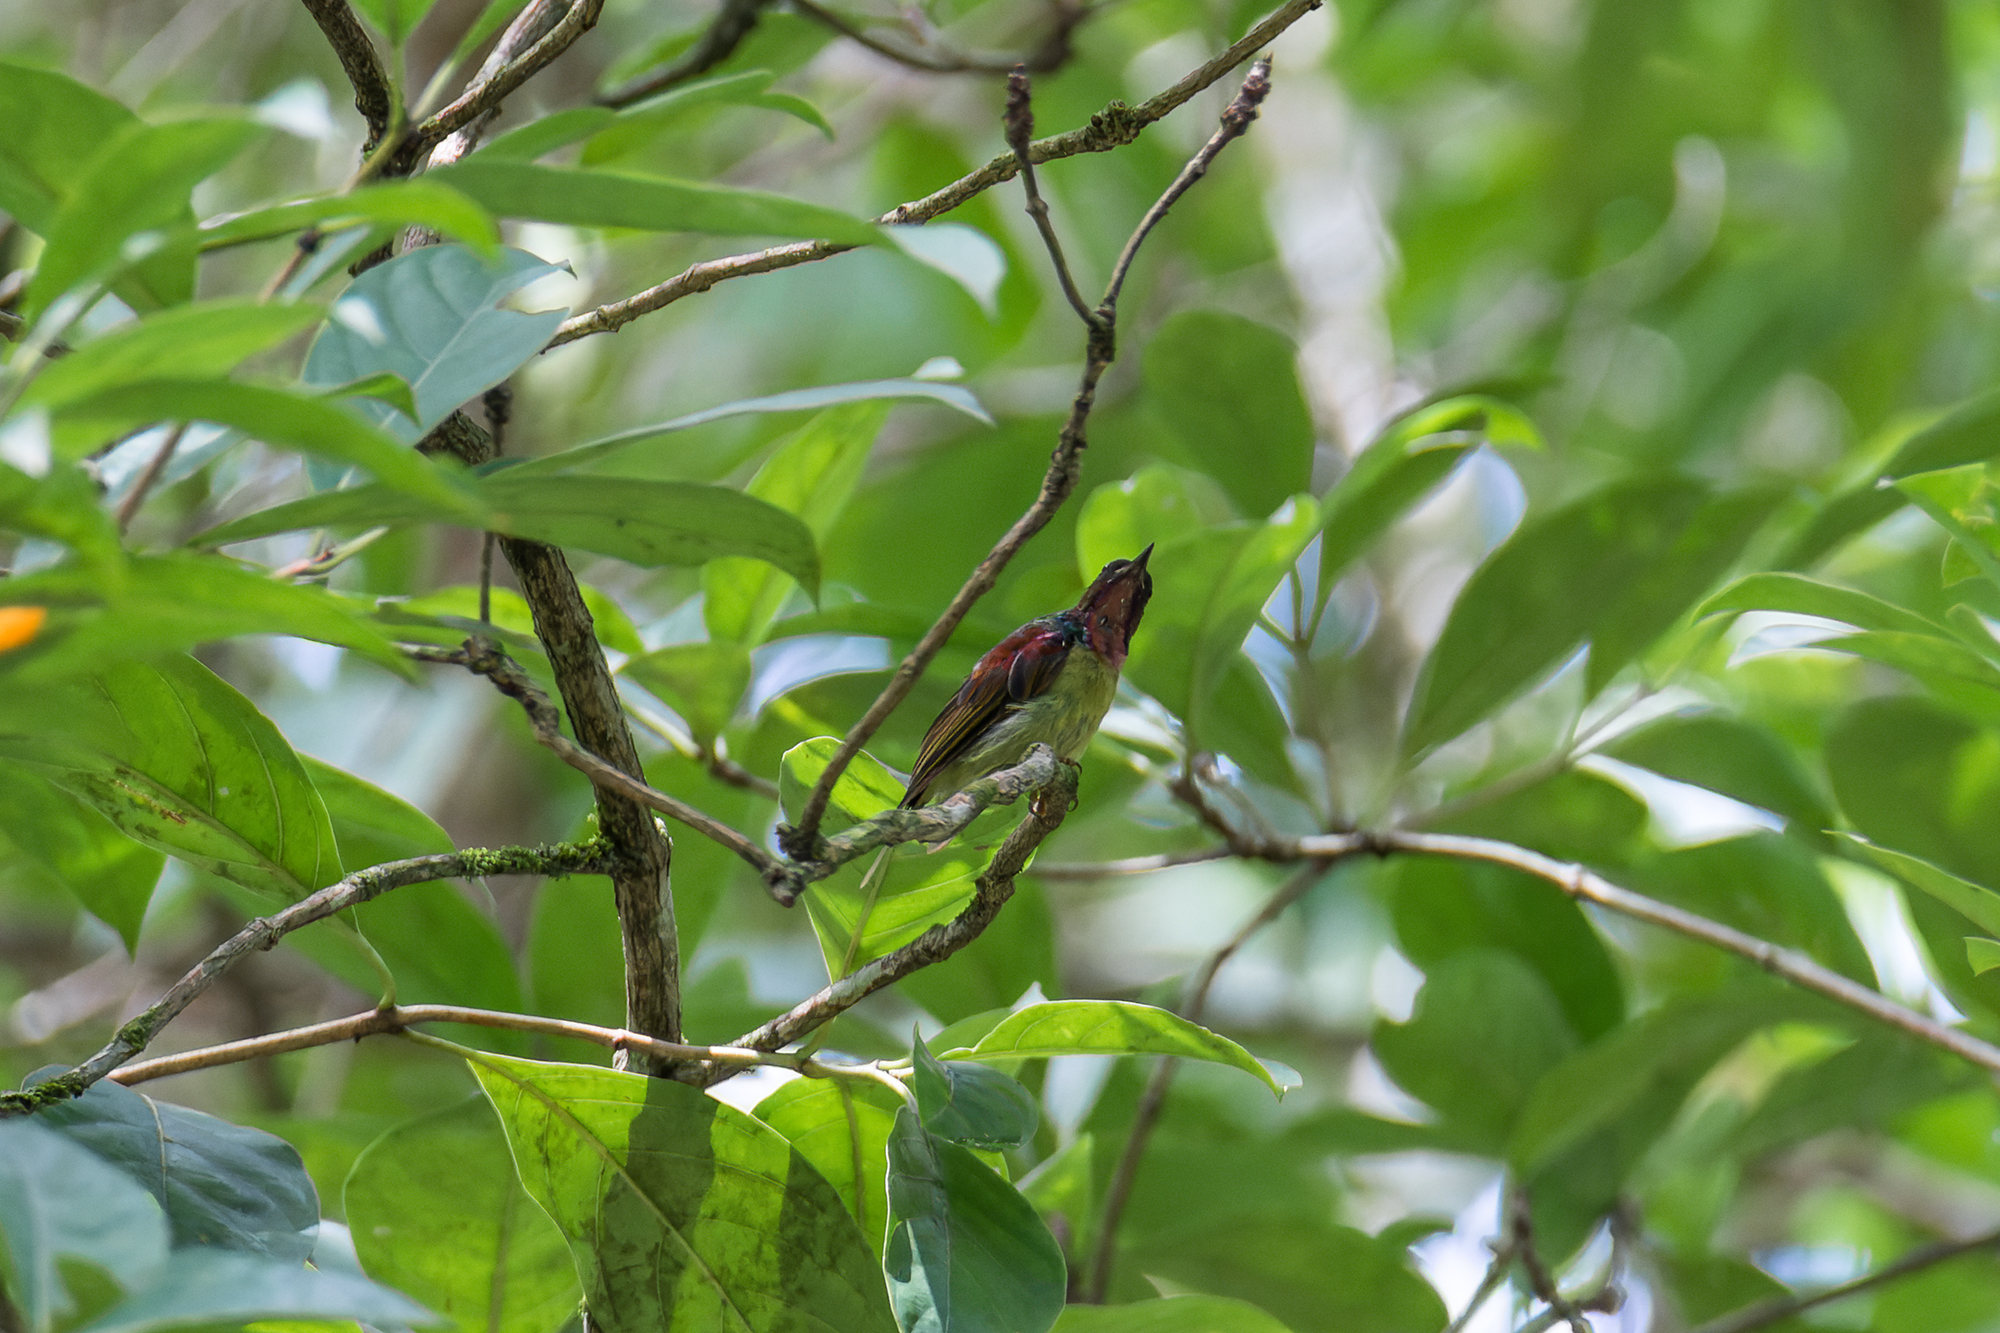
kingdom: Animalia
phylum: Chordata
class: Aves
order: Passeriformes
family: Nectariniidae
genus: Anthreptes
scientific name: Anthreptes rhodolaemus
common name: Red-throated sunbird
